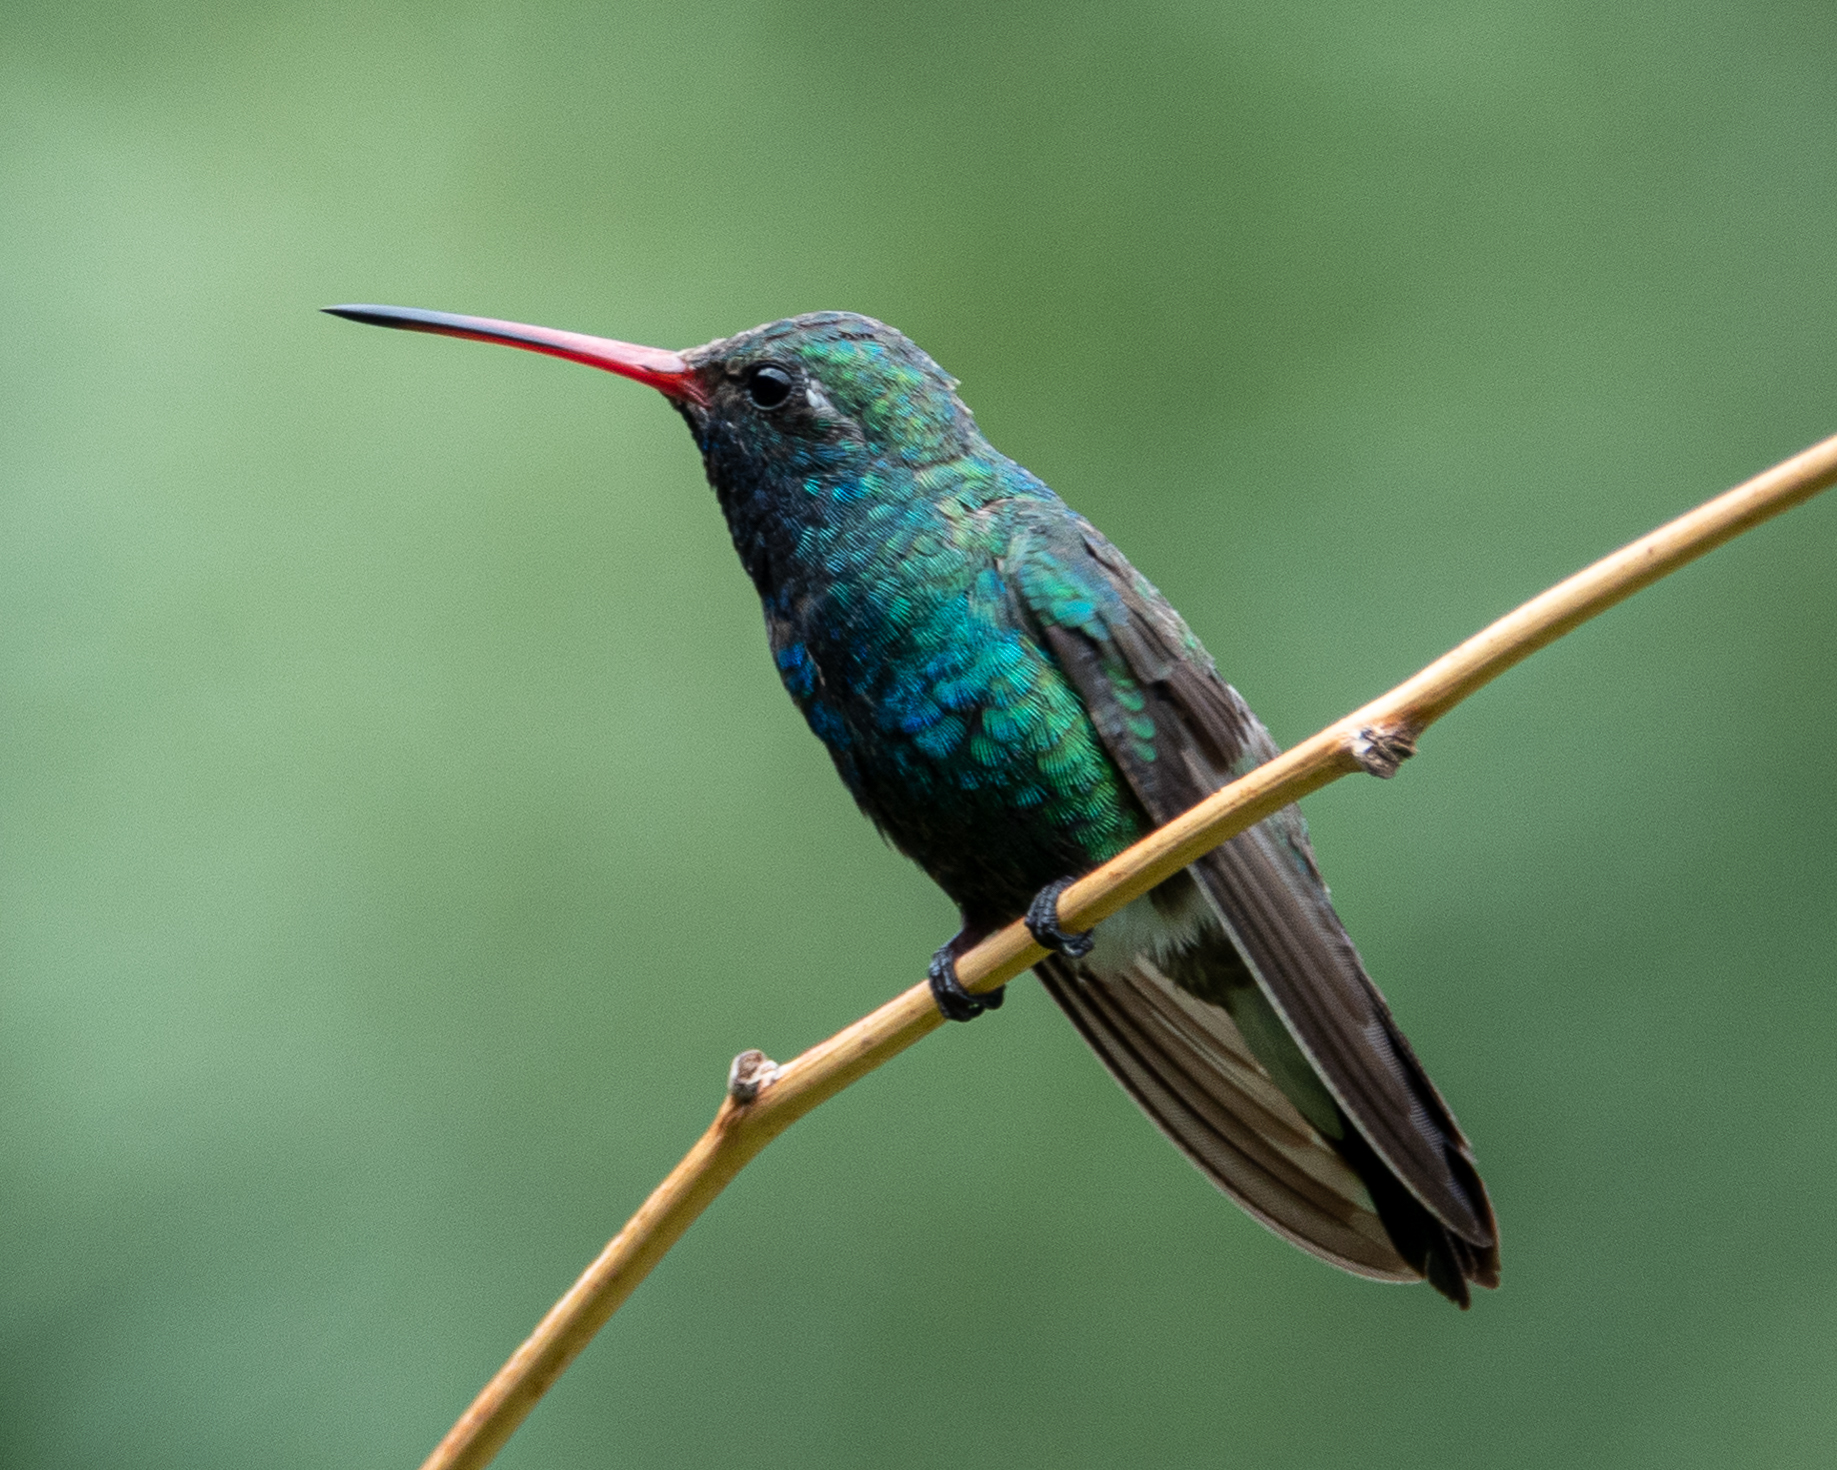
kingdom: Animalia
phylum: Chordata
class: Aves
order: Apodiformes
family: Trochilidae
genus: Cynanthus
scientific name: Cynanthus latirostris
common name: Broad-billed hummingbird
